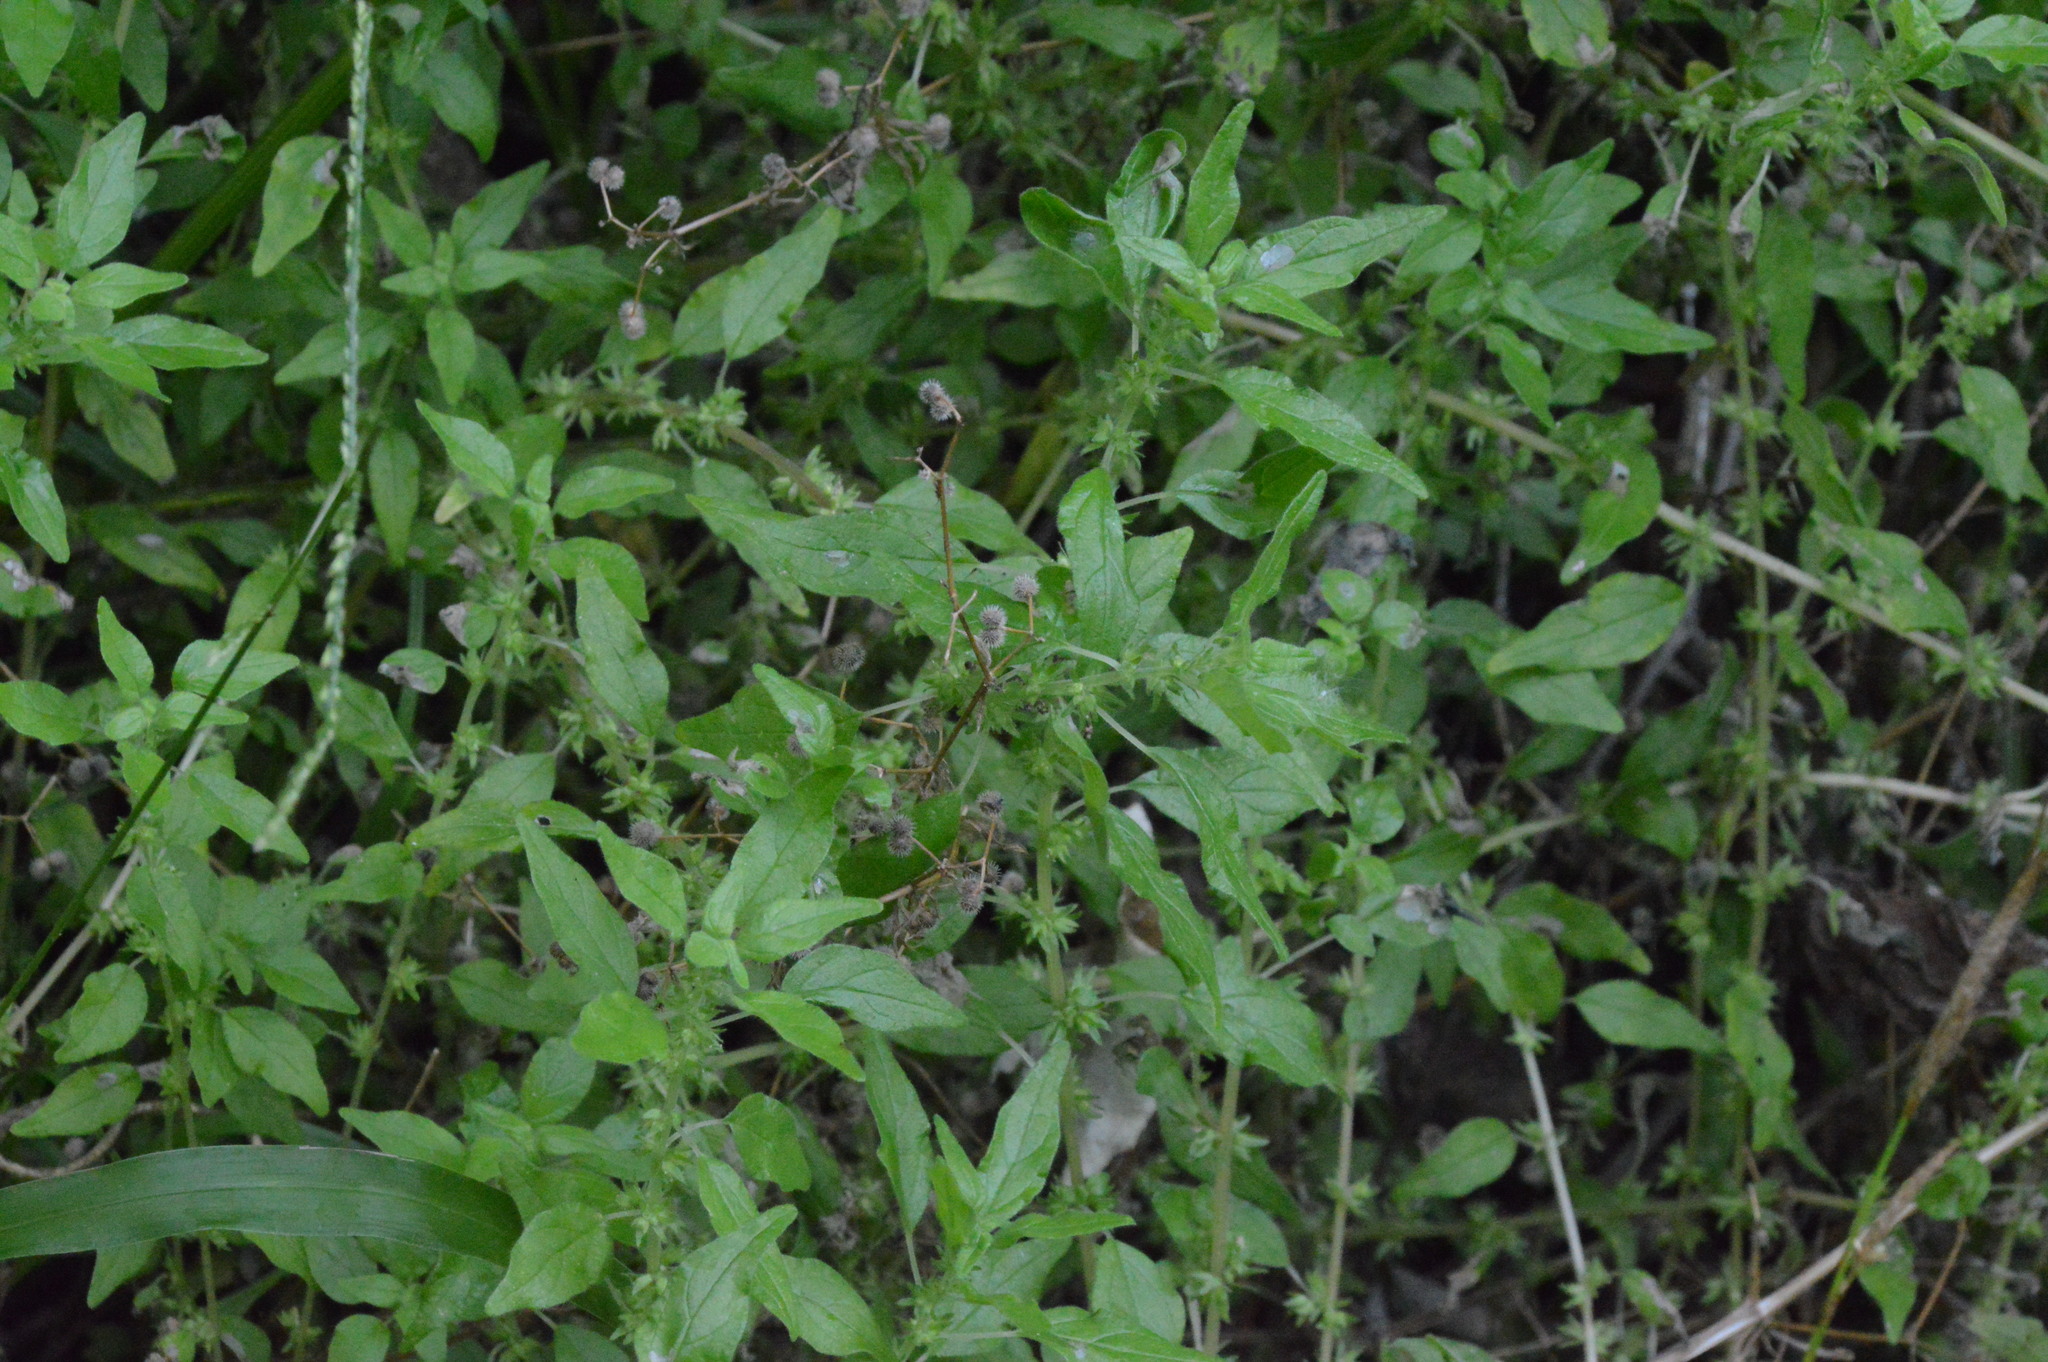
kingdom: Plantae
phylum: Tracheophyta
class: Magnoliopsida
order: Rosales
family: Urticaceae
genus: Parietaria
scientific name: Parietaria pensylvanica
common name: Pennsylvania pellitory
